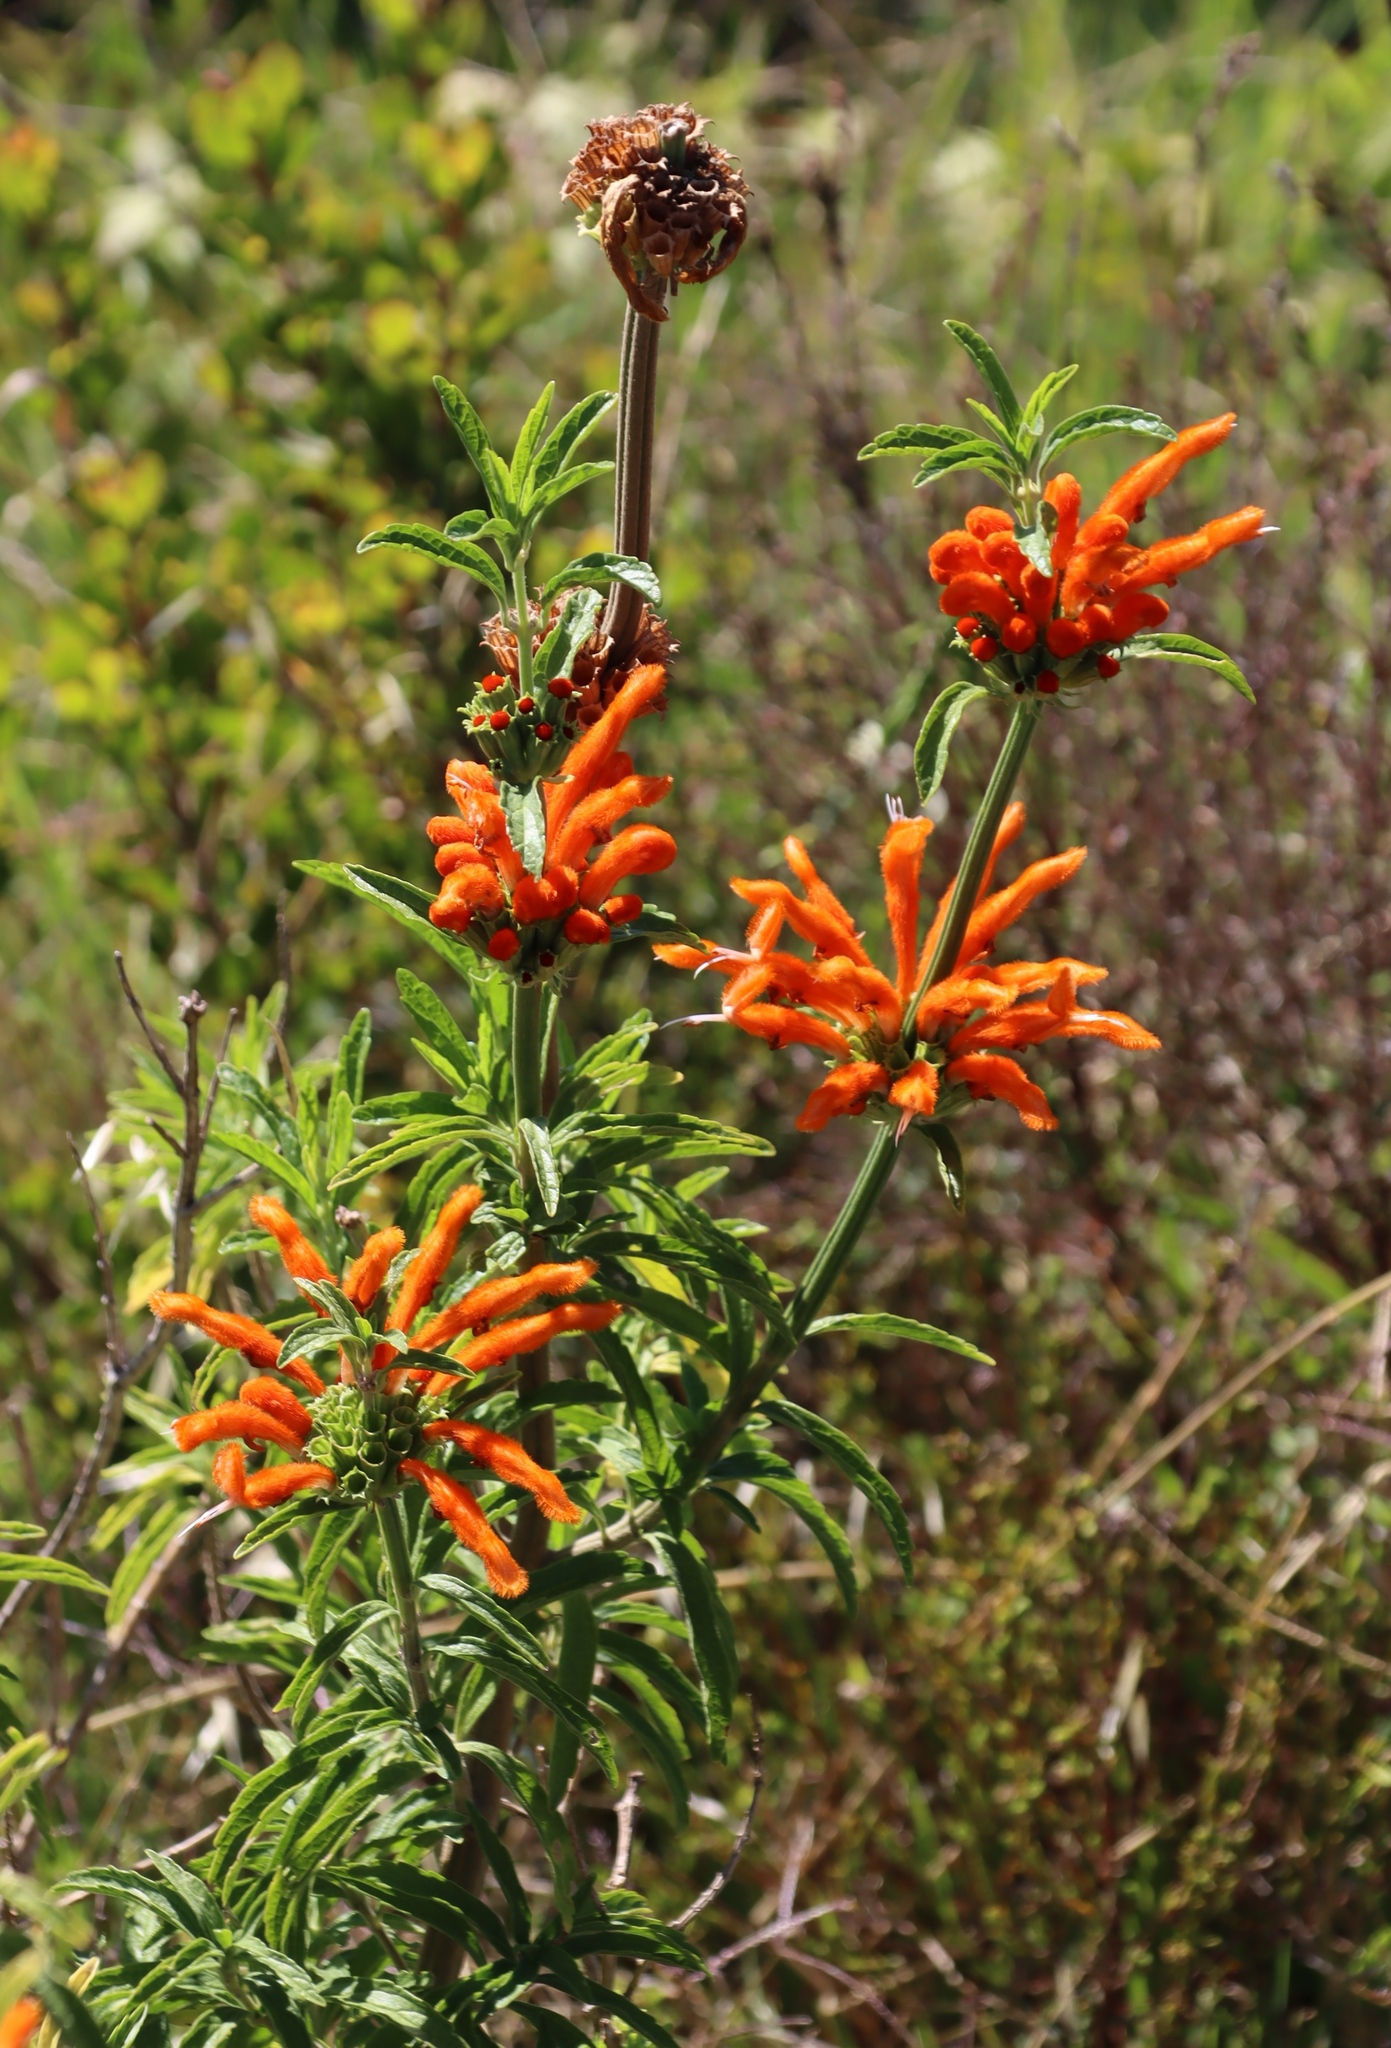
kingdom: Plantae
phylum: Tracheophyta
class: Magnoliopsida
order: Lamiales
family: Lamiaceae
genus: Leonotis
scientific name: Leonotis leonurus
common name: Lion's ear
